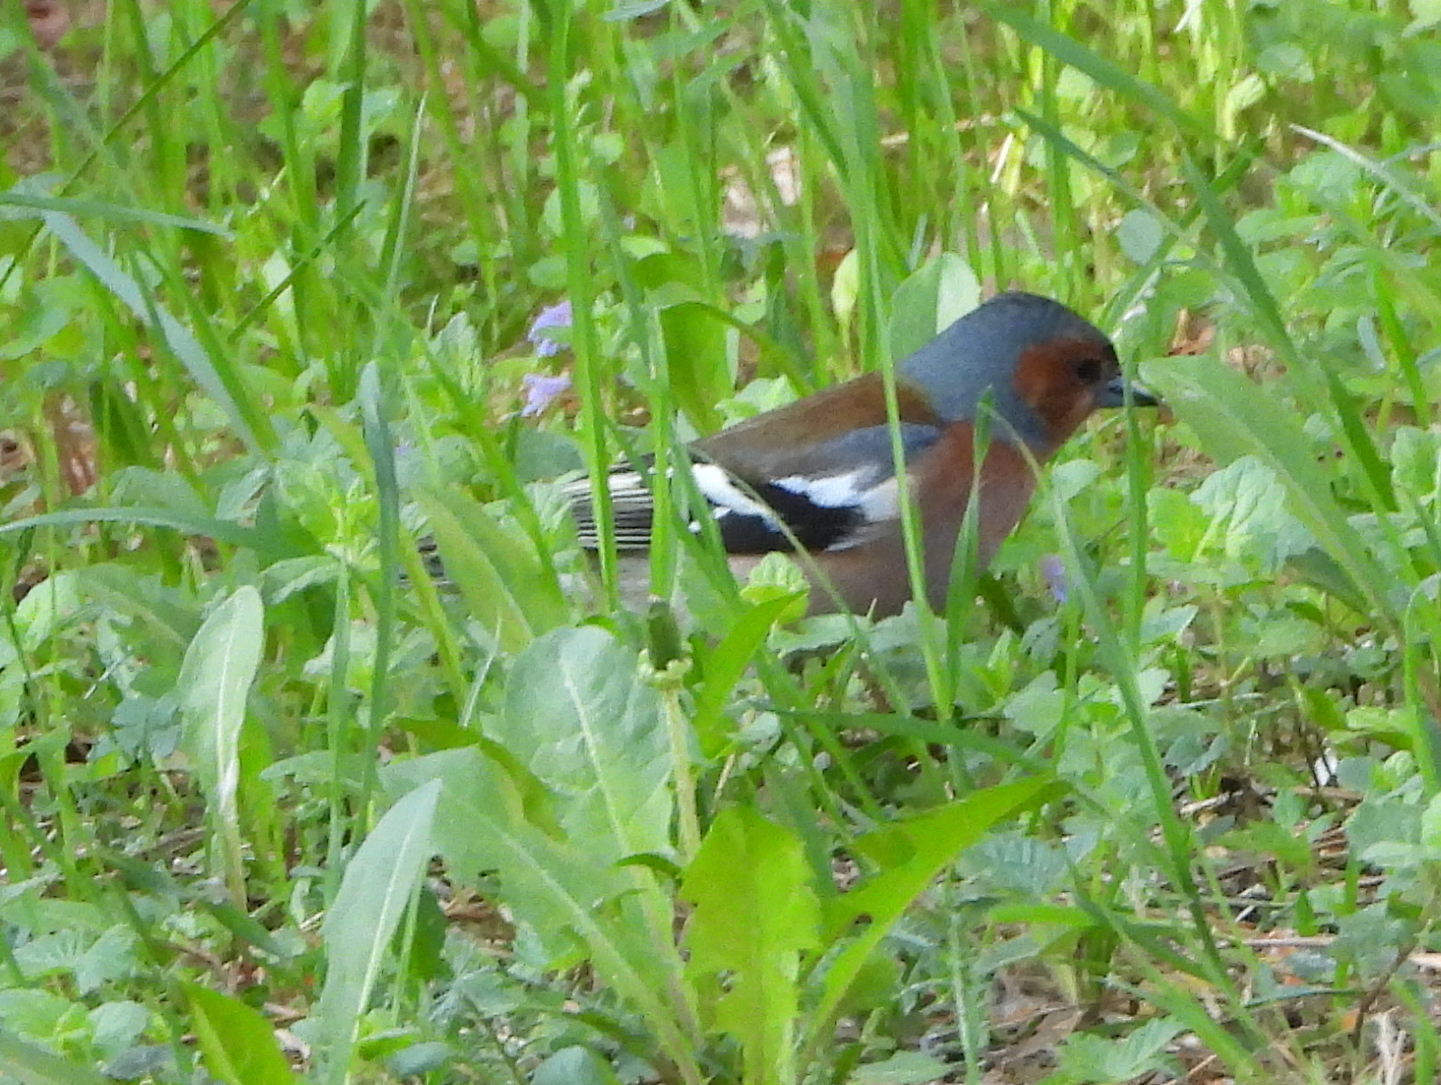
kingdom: Animalia
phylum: Chordata
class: Aves
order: Passeriformes
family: Fringillidae
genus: Fringilla
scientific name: Fringilla coelebs
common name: Common chaffinch
